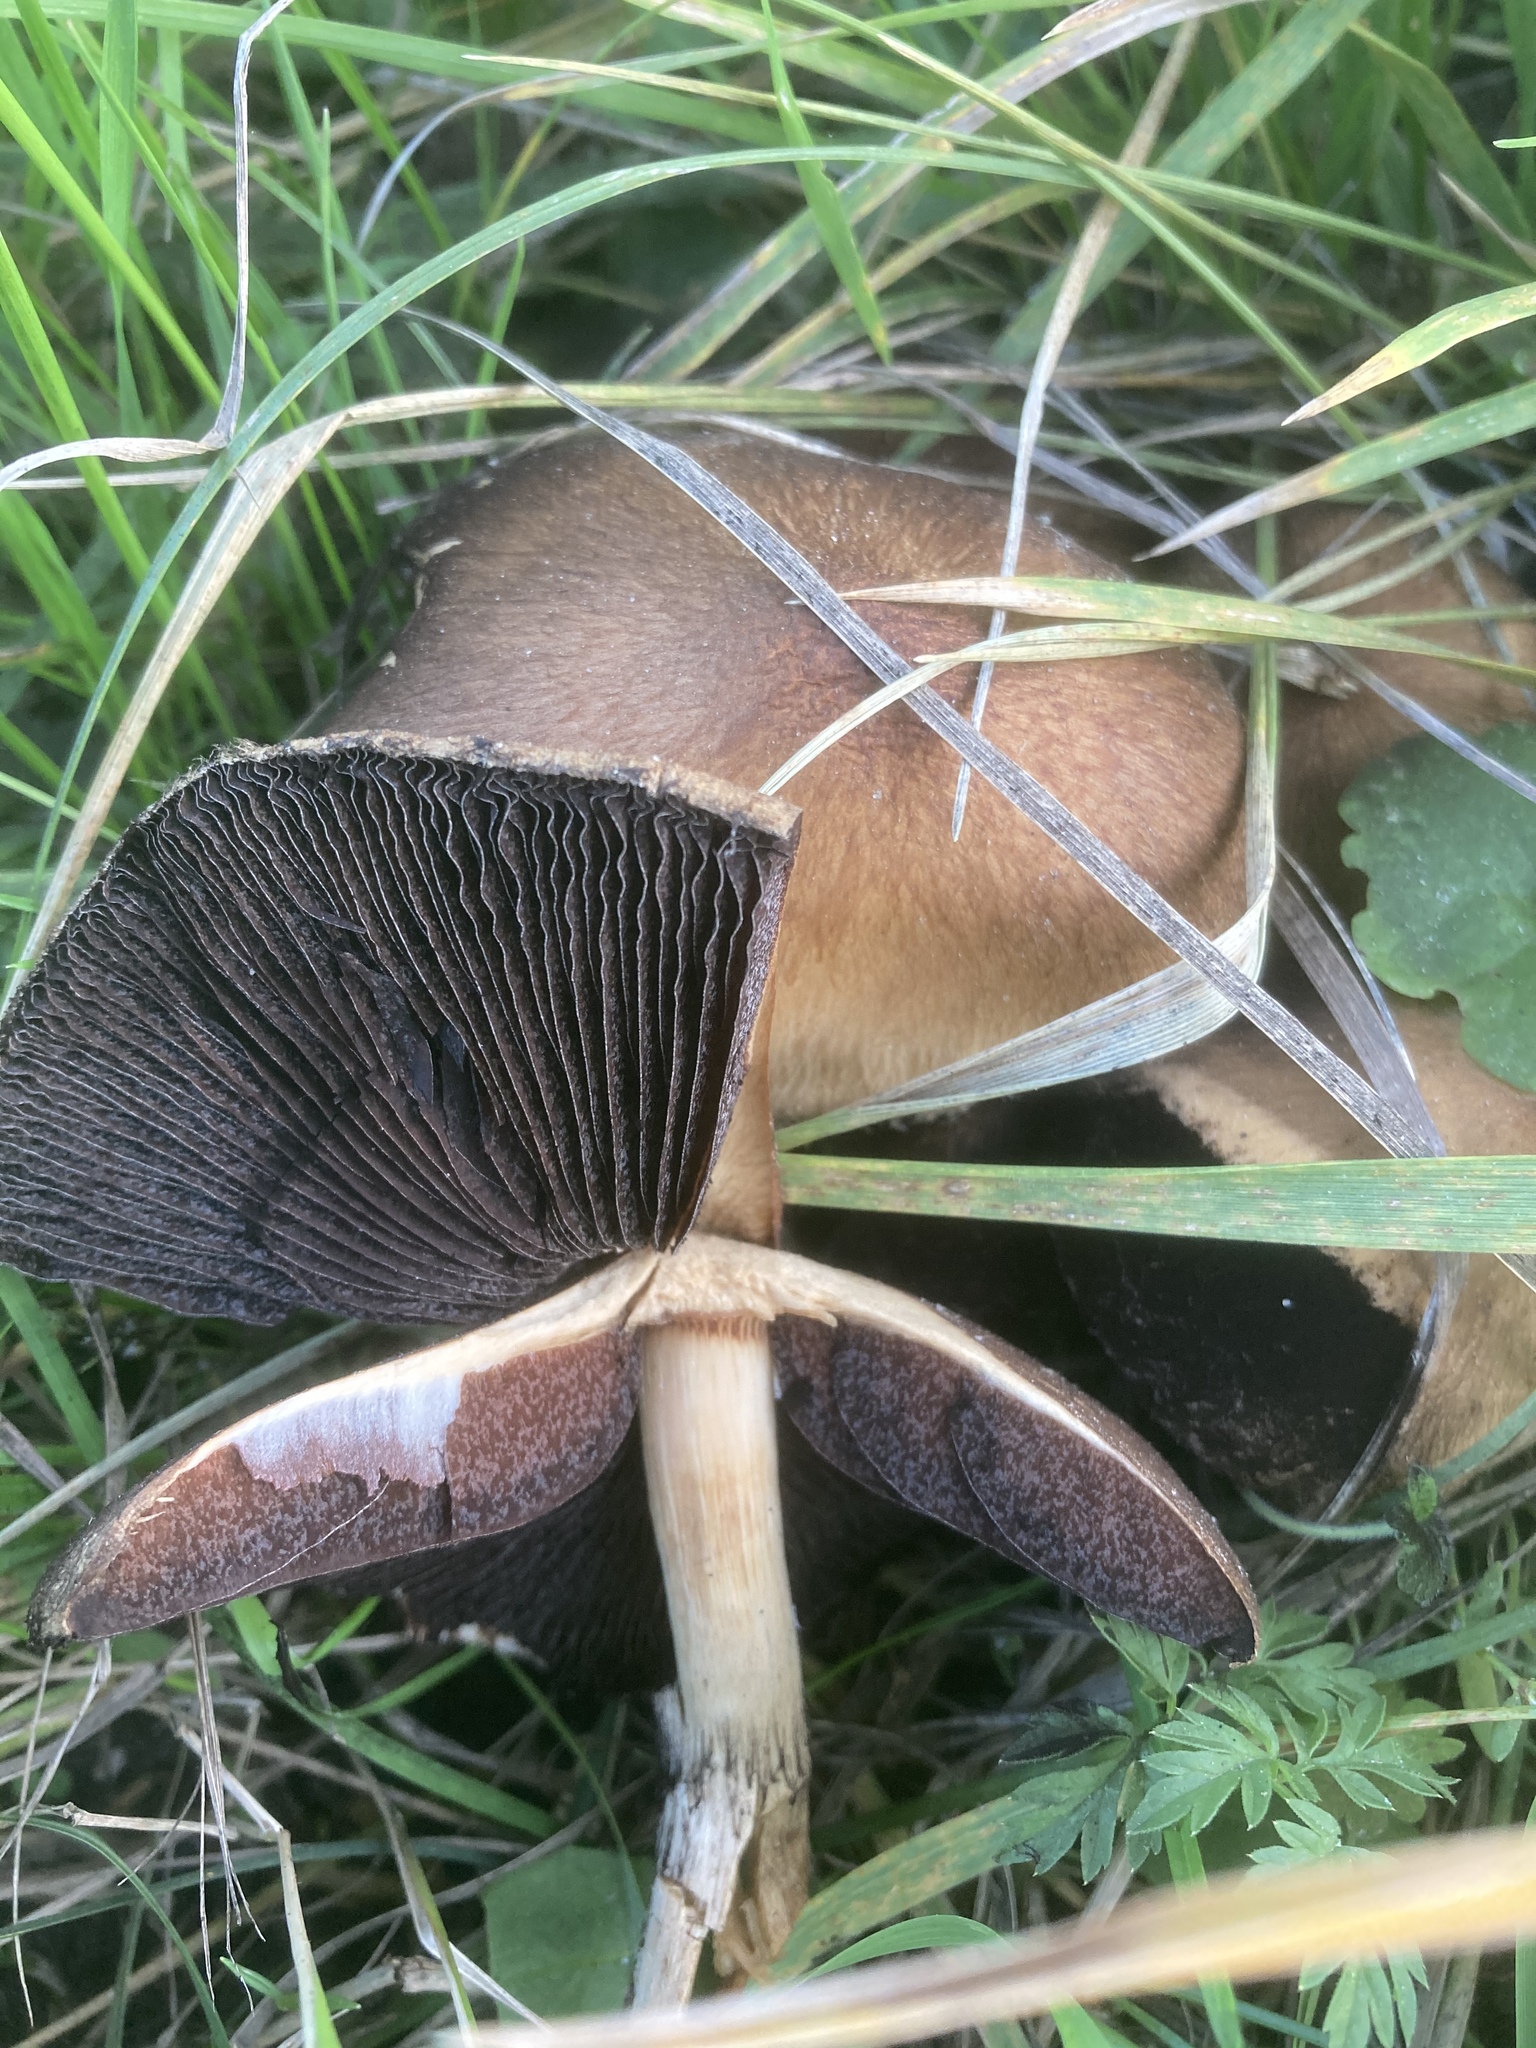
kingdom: Fungi
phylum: Basidiomycota
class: Agaricomycetes
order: Agaricales
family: Psathyrellaceae
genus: Lacrymaria
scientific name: Lacrymaria lacrymabunda
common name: Weeping widow
